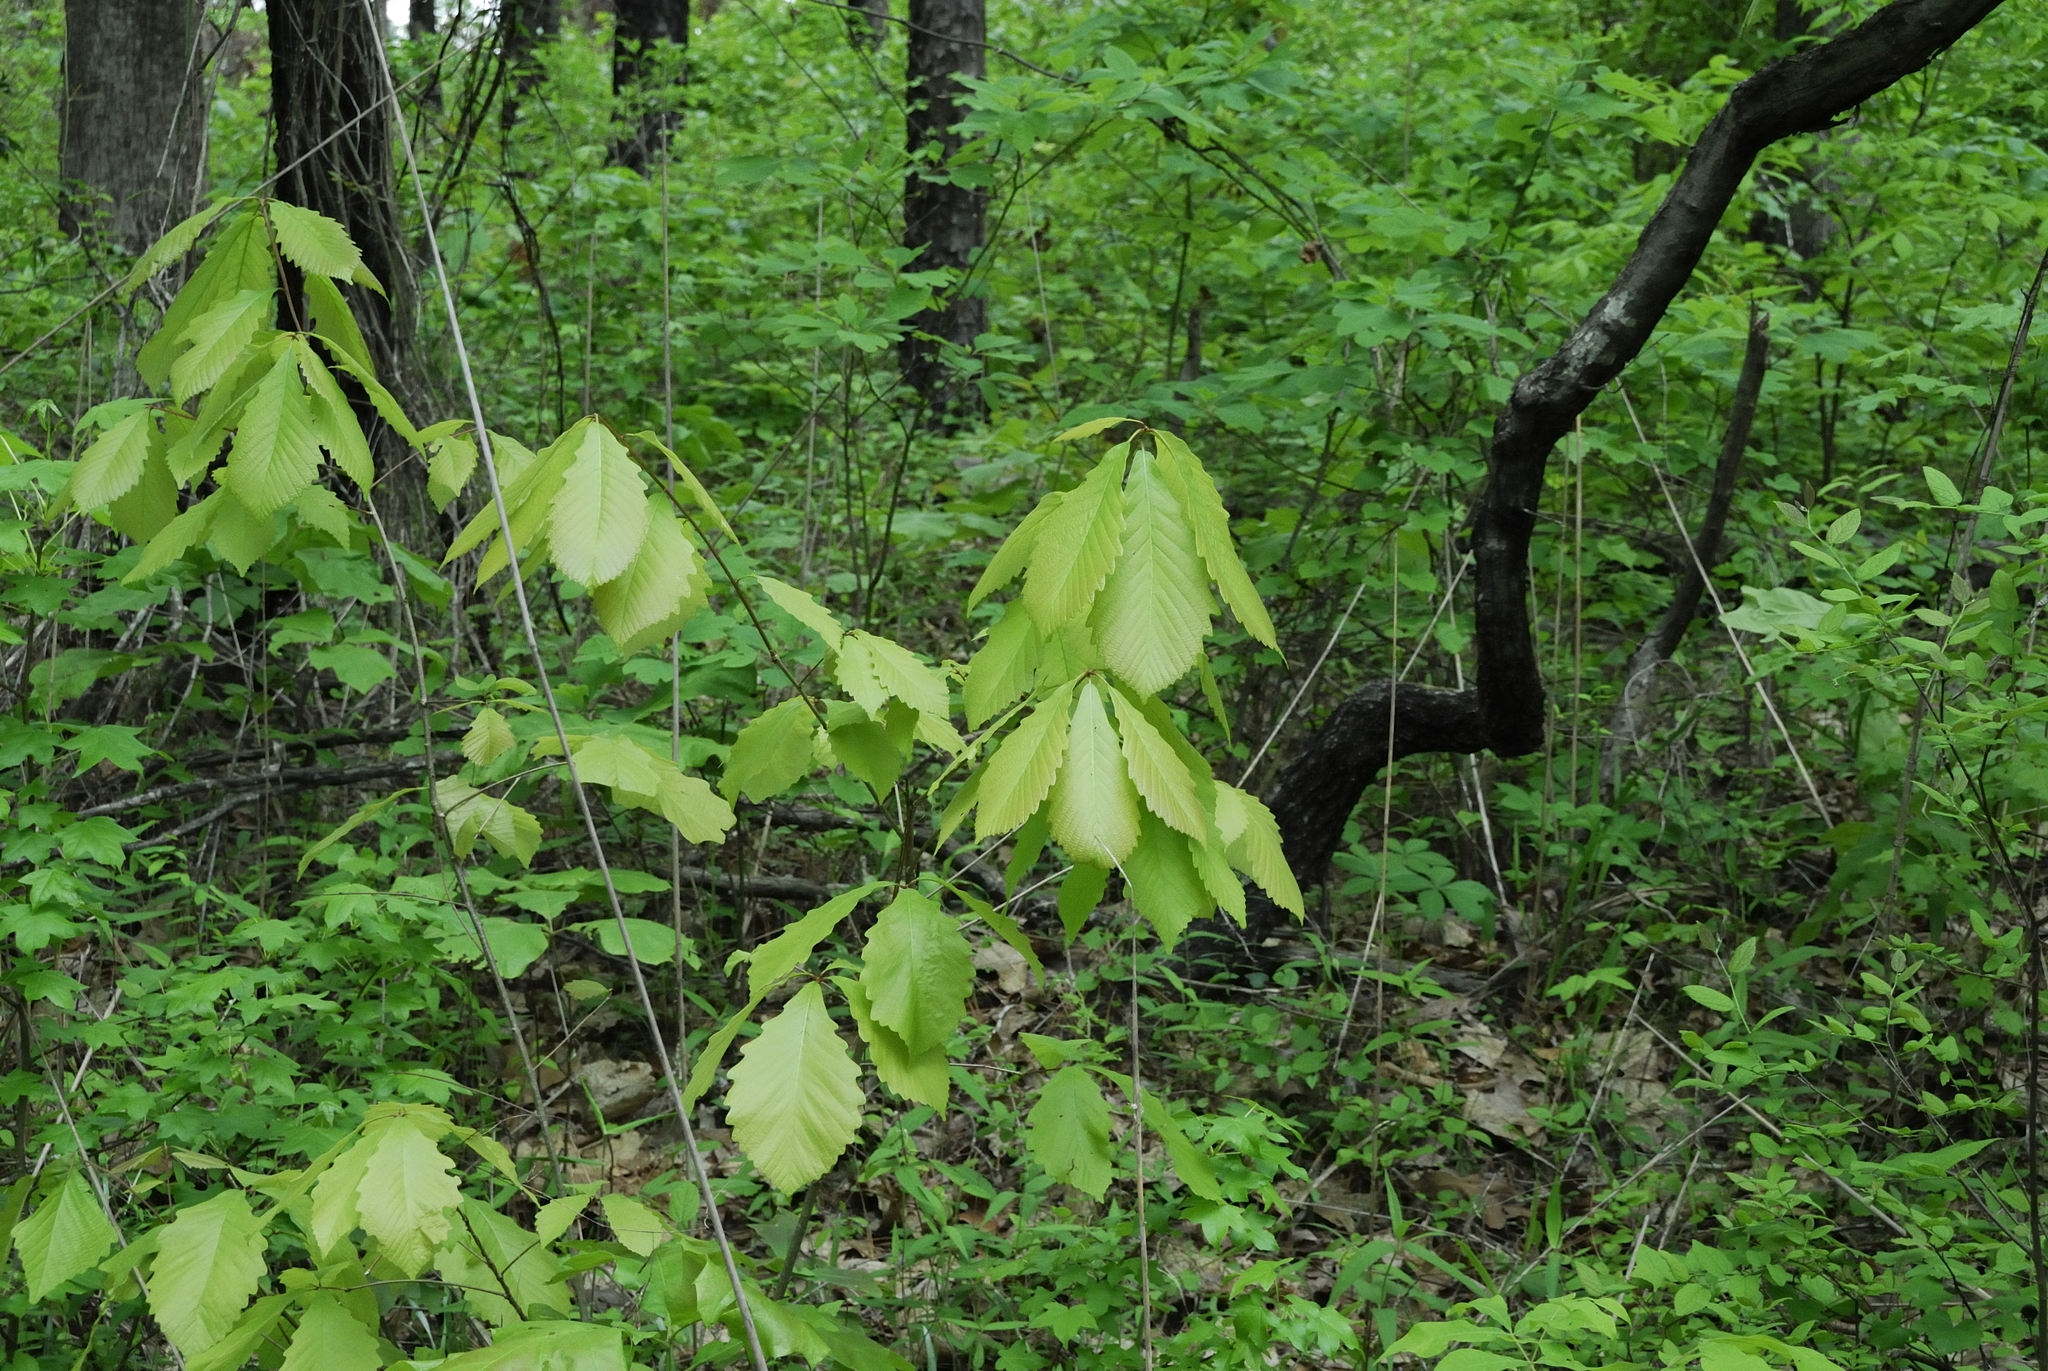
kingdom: Plantae
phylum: Tracheophyta
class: Magnoliopsida
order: Fagales
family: Fagaceae
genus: Quercus
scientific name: Quercus montana
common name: Chestnut oak
